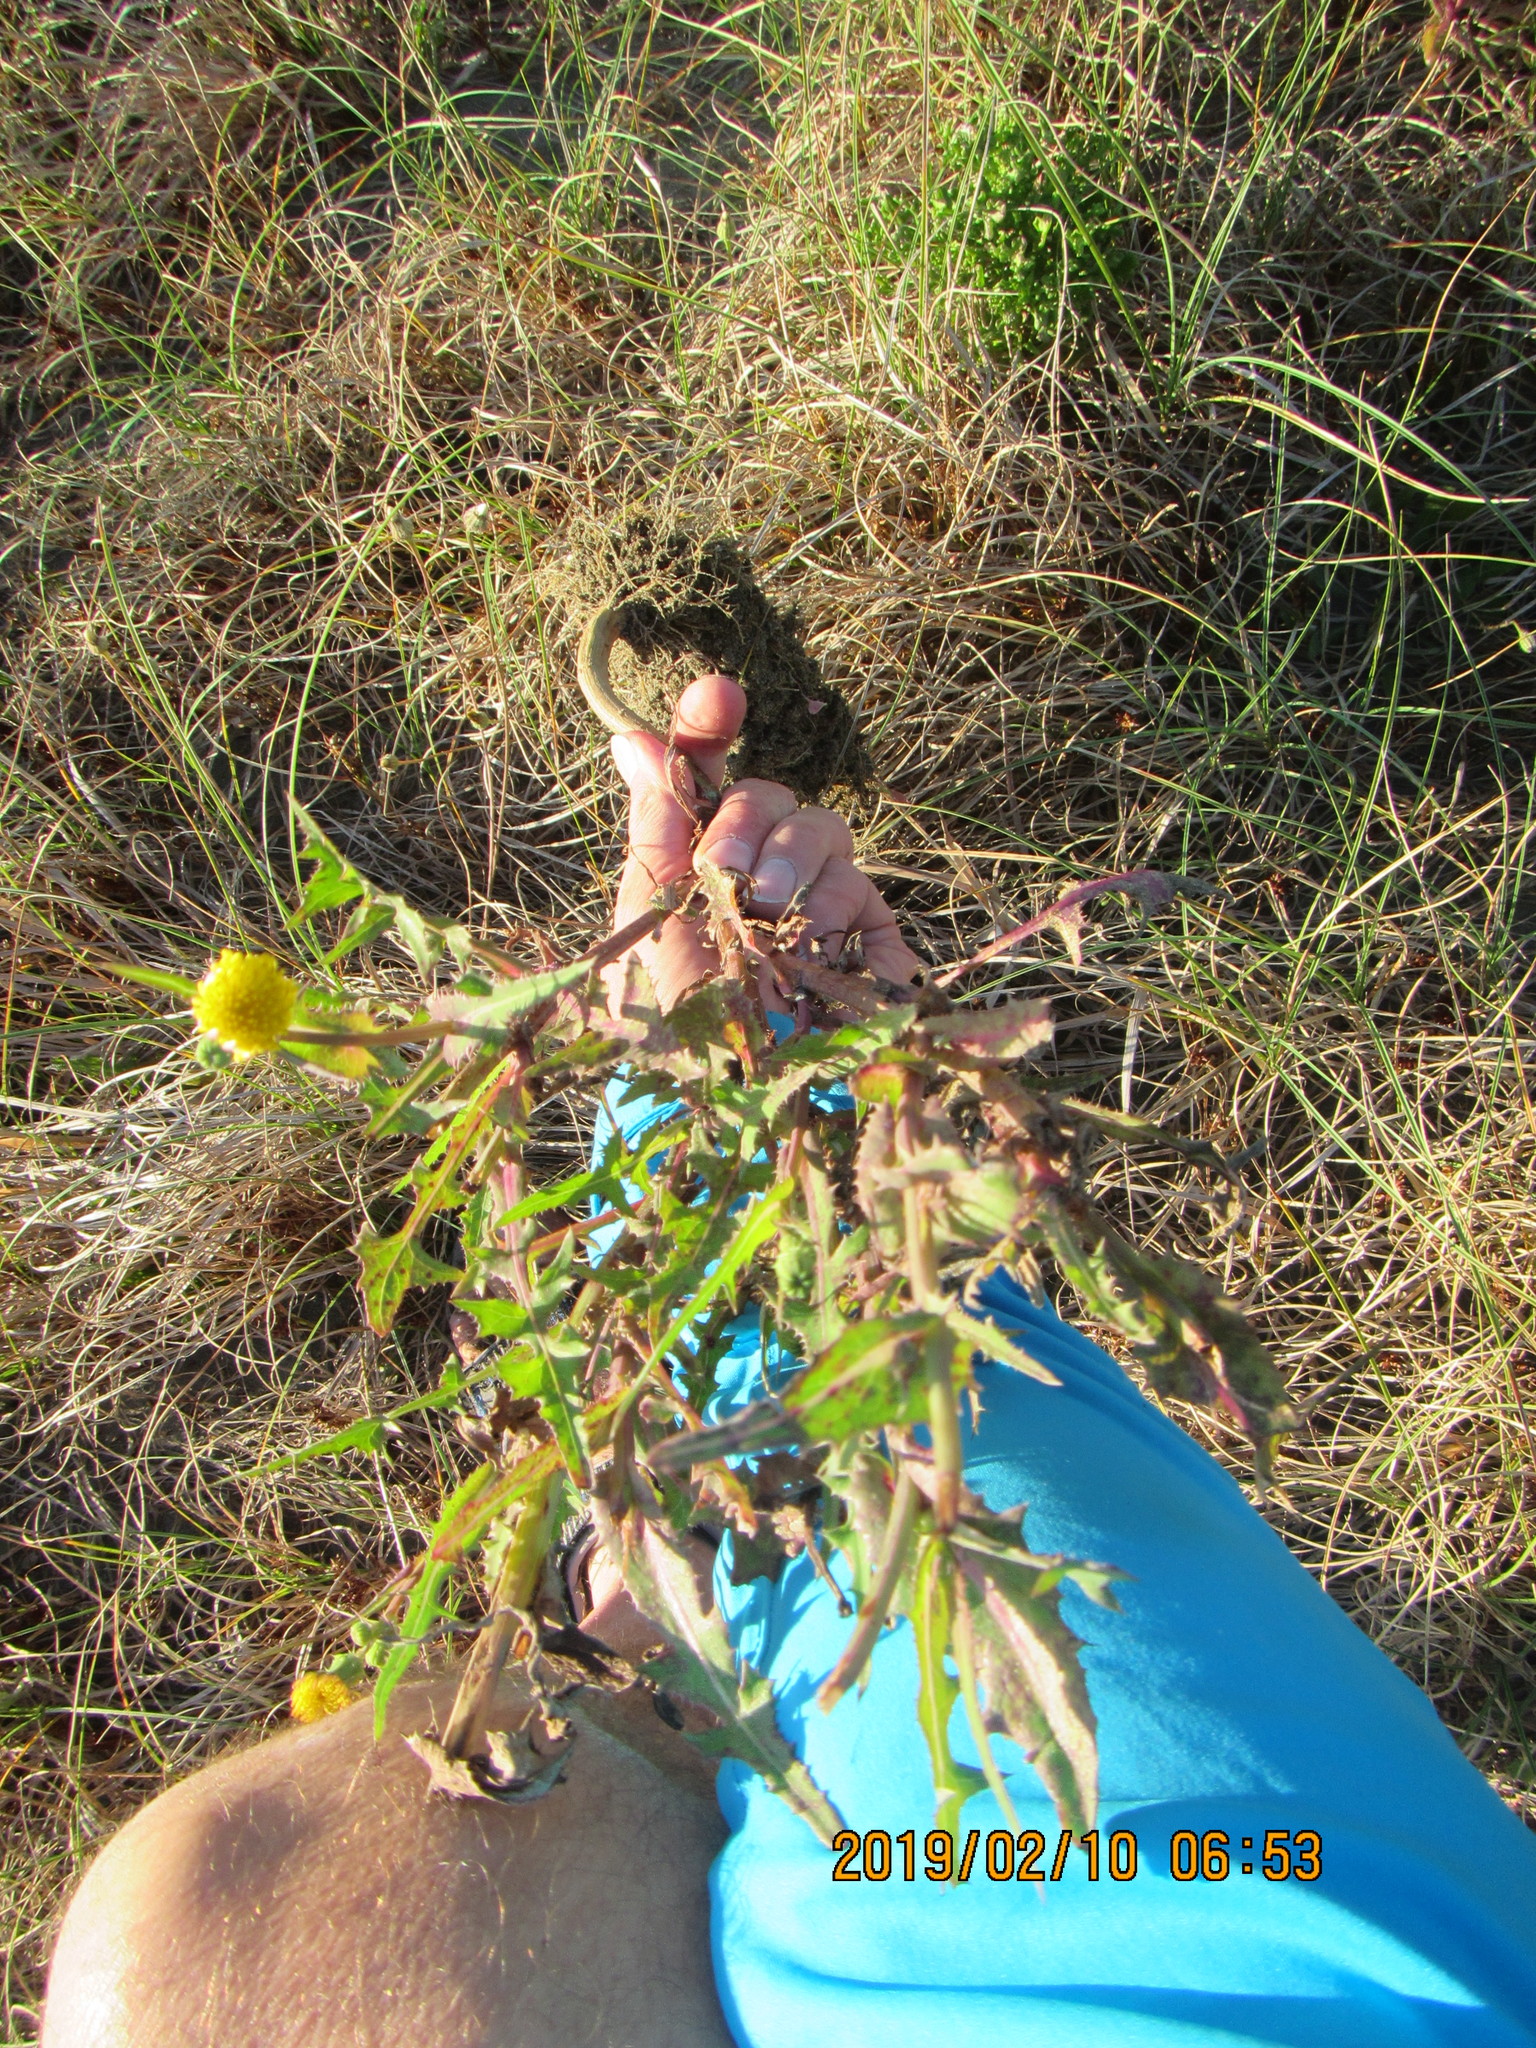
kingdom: Plantae
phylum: Tracheophyta
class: Magnoliopsida
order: Asterales
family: Asteraceae
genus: Sonchus
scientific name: Sonchus oleraceus
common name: Common sowthistle
